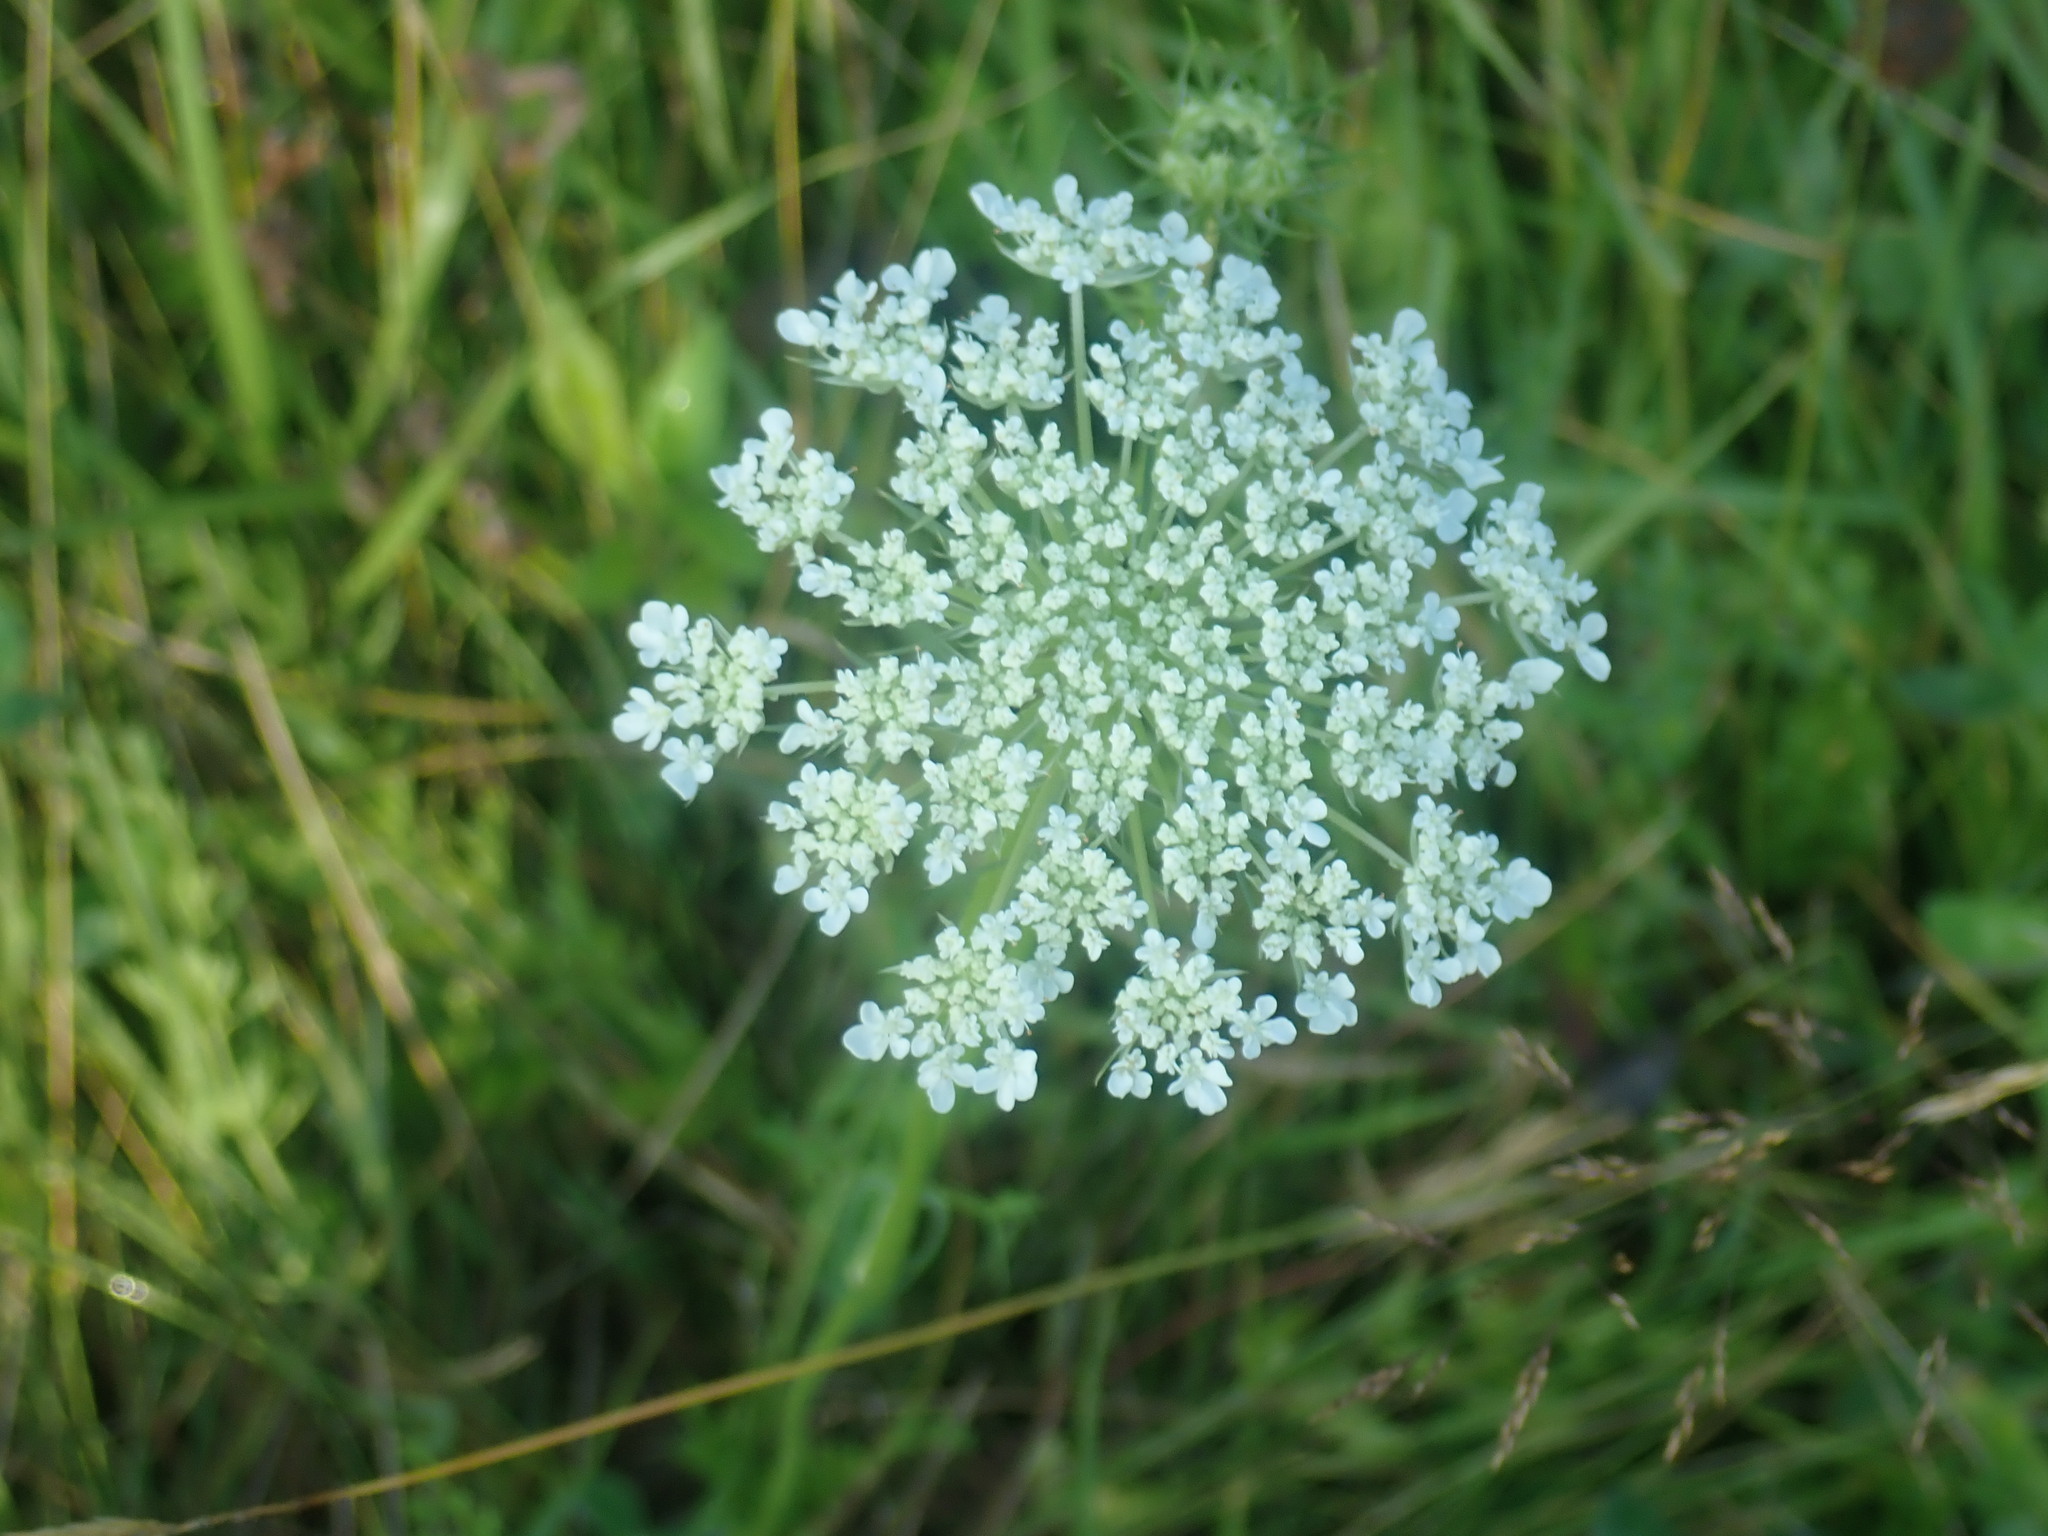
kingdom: Plantae
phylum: Tracheophyta
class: Magnoliopsida
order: Apiales
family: Apiaceae
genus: Daucus
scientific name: Daucus carota
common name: Wild carrot
